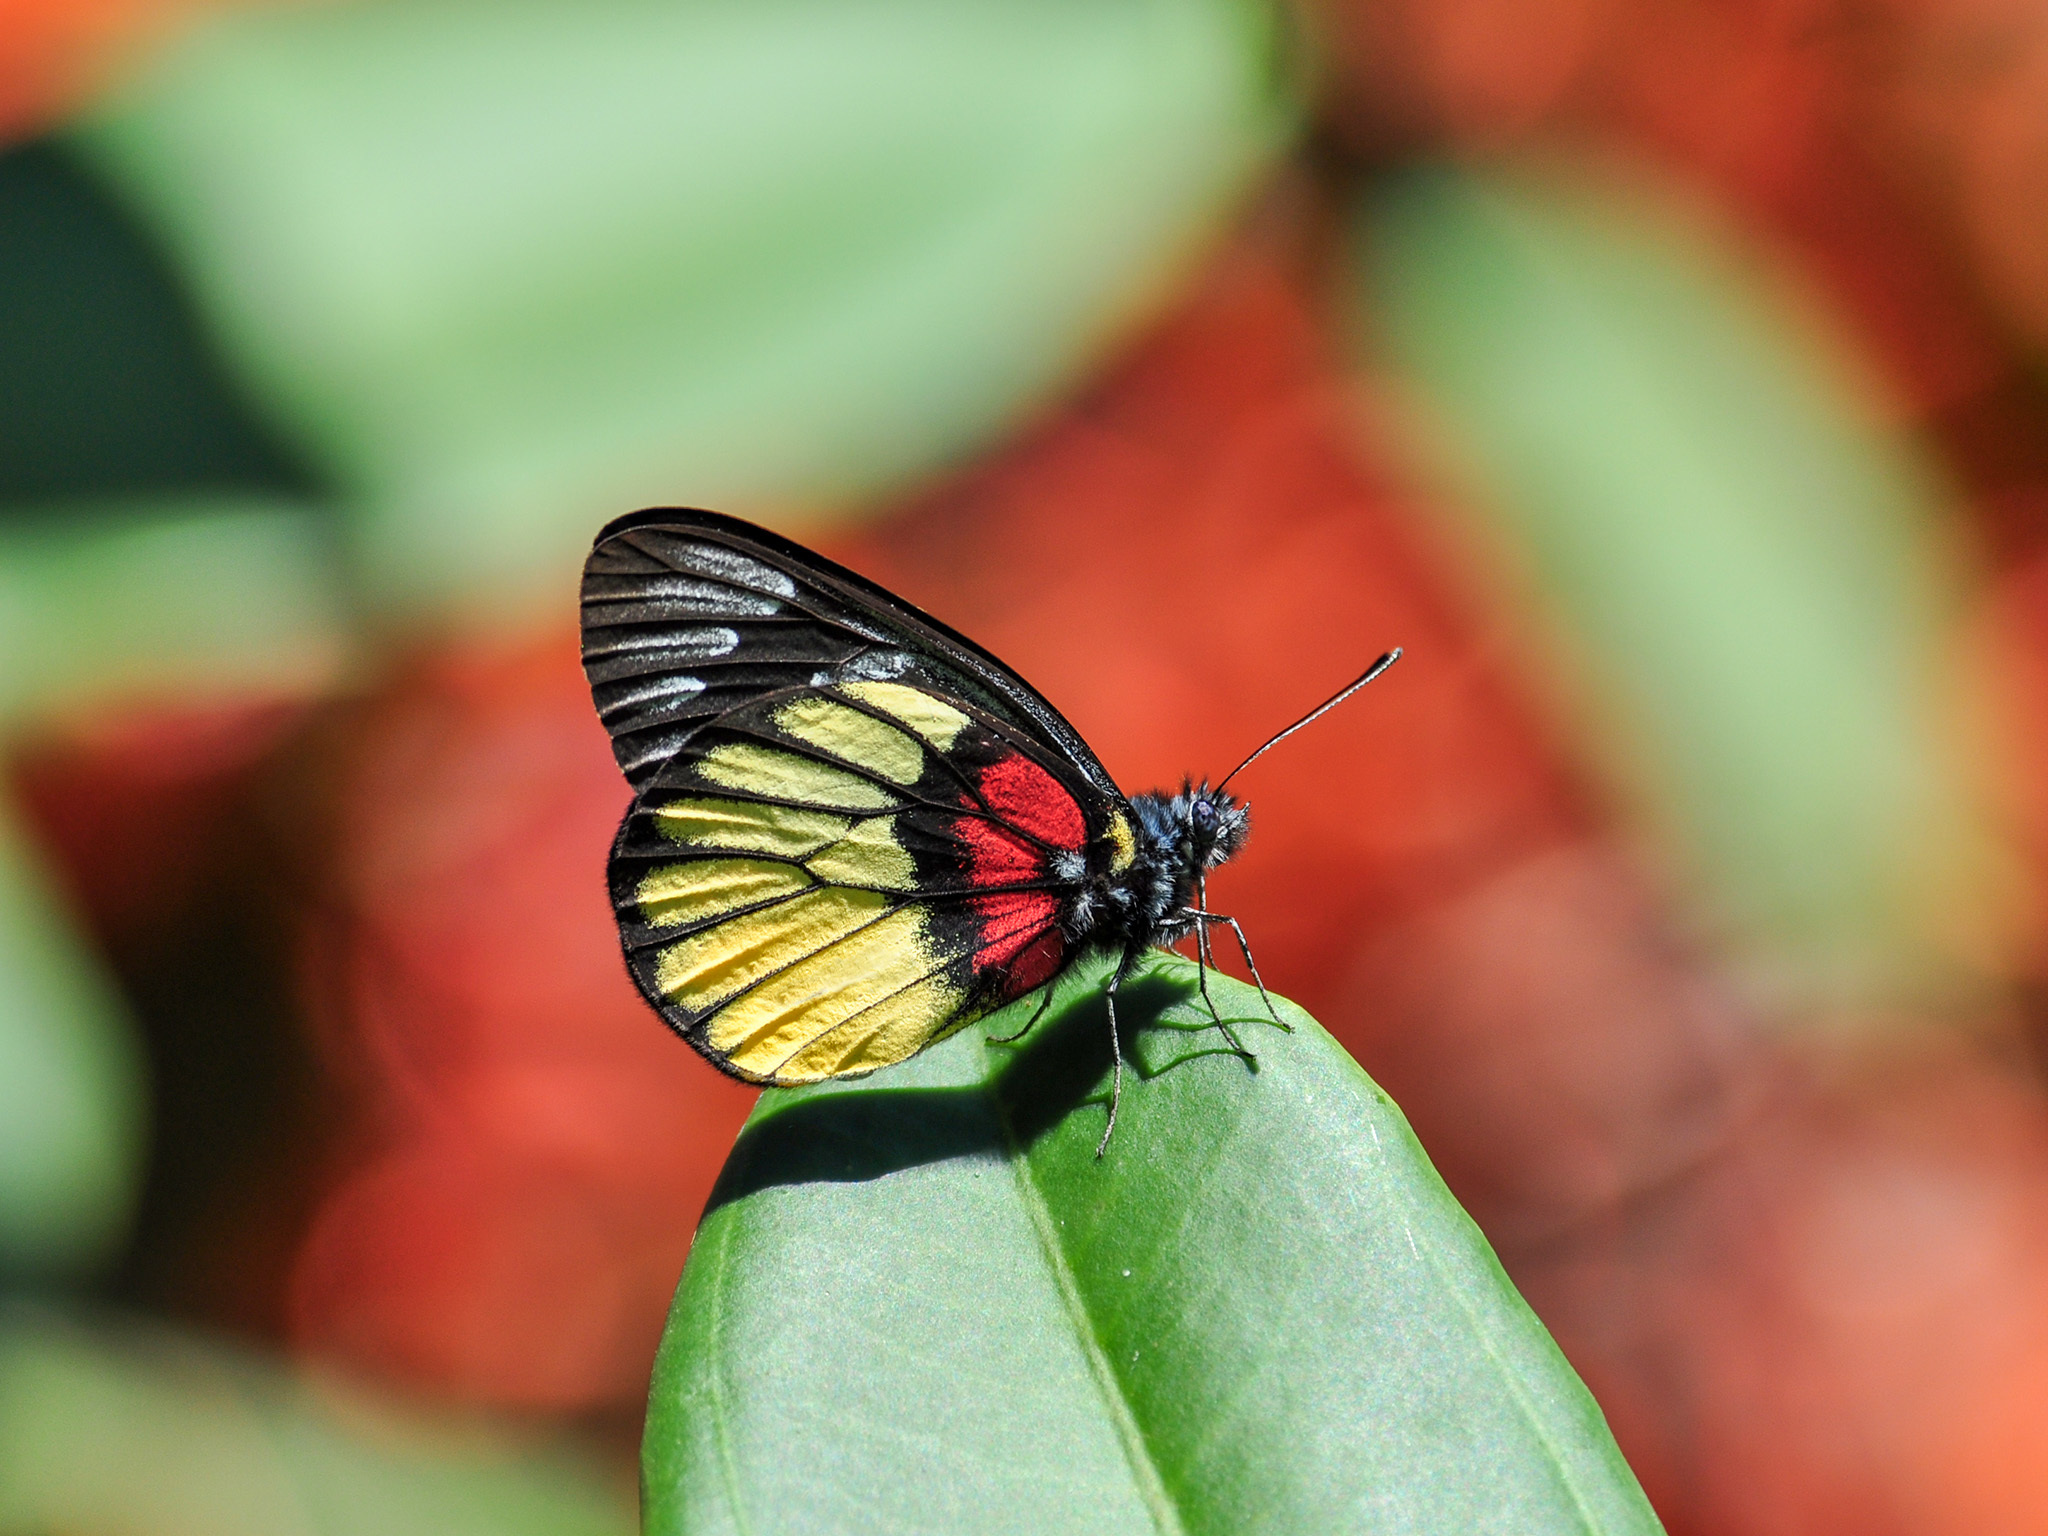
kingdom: Animalia
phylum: Arthropoda
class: Insecta
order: Lepidoptera
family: Pieridae
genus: Delias
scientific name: Delias ninus
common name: Malayan jezebel
